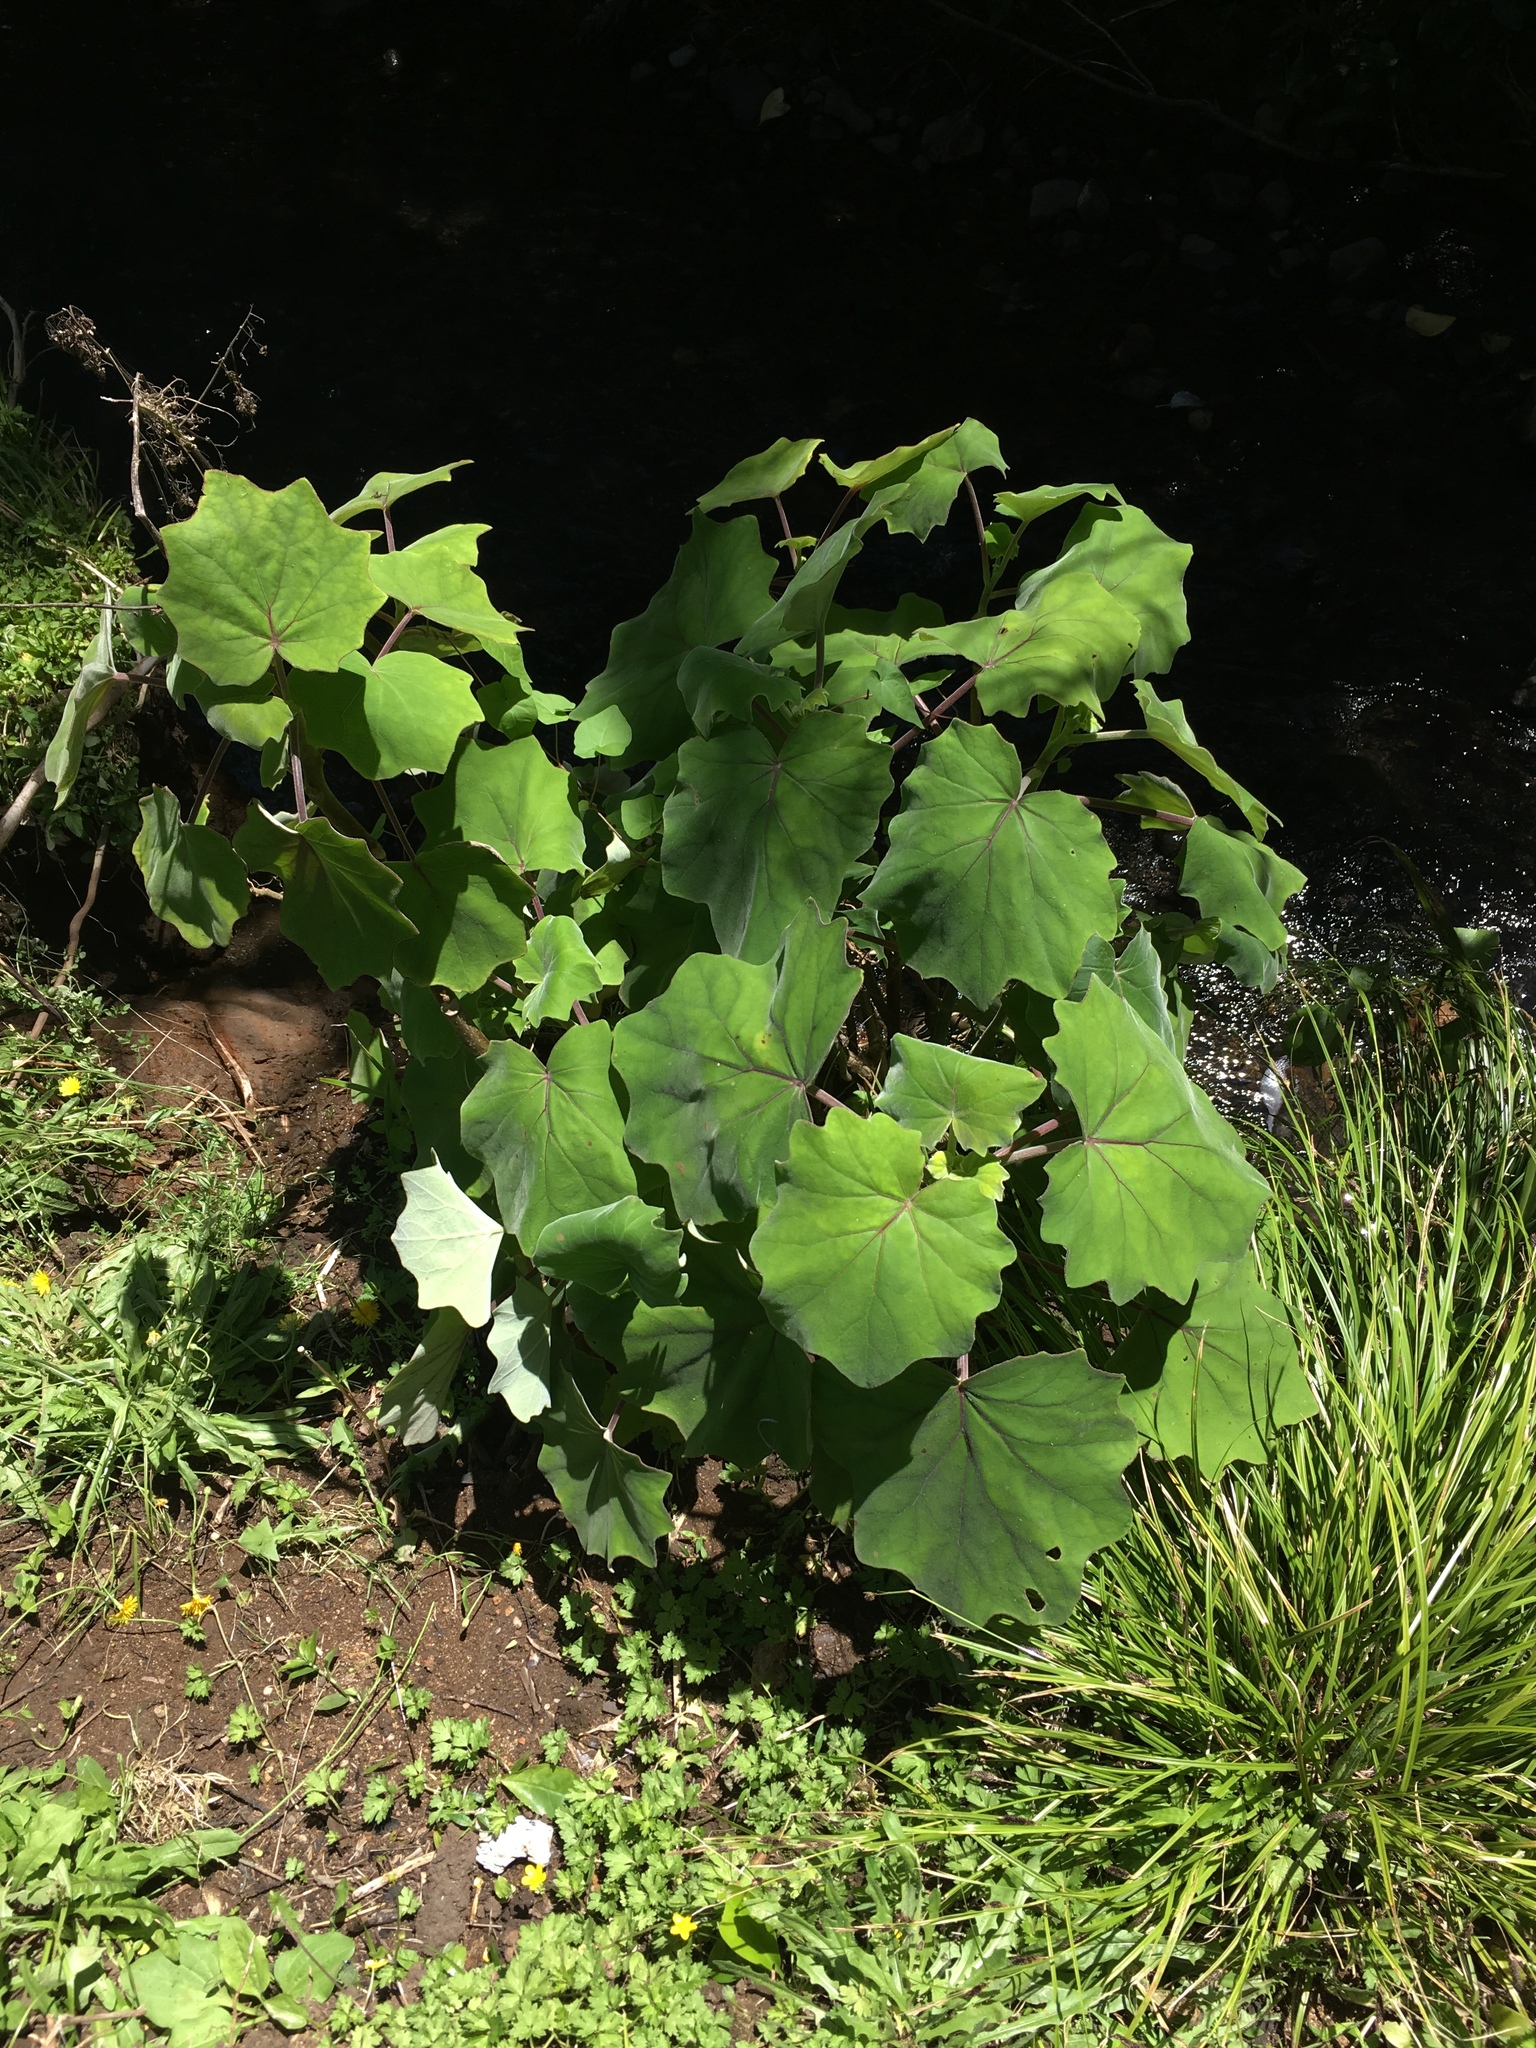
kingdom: Plantae
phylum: Tracheophyta
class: Magnoliopsida
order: Asterales
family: Asteraceae
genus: Roldana
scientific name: Roldana petasitis
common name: California-geranium
